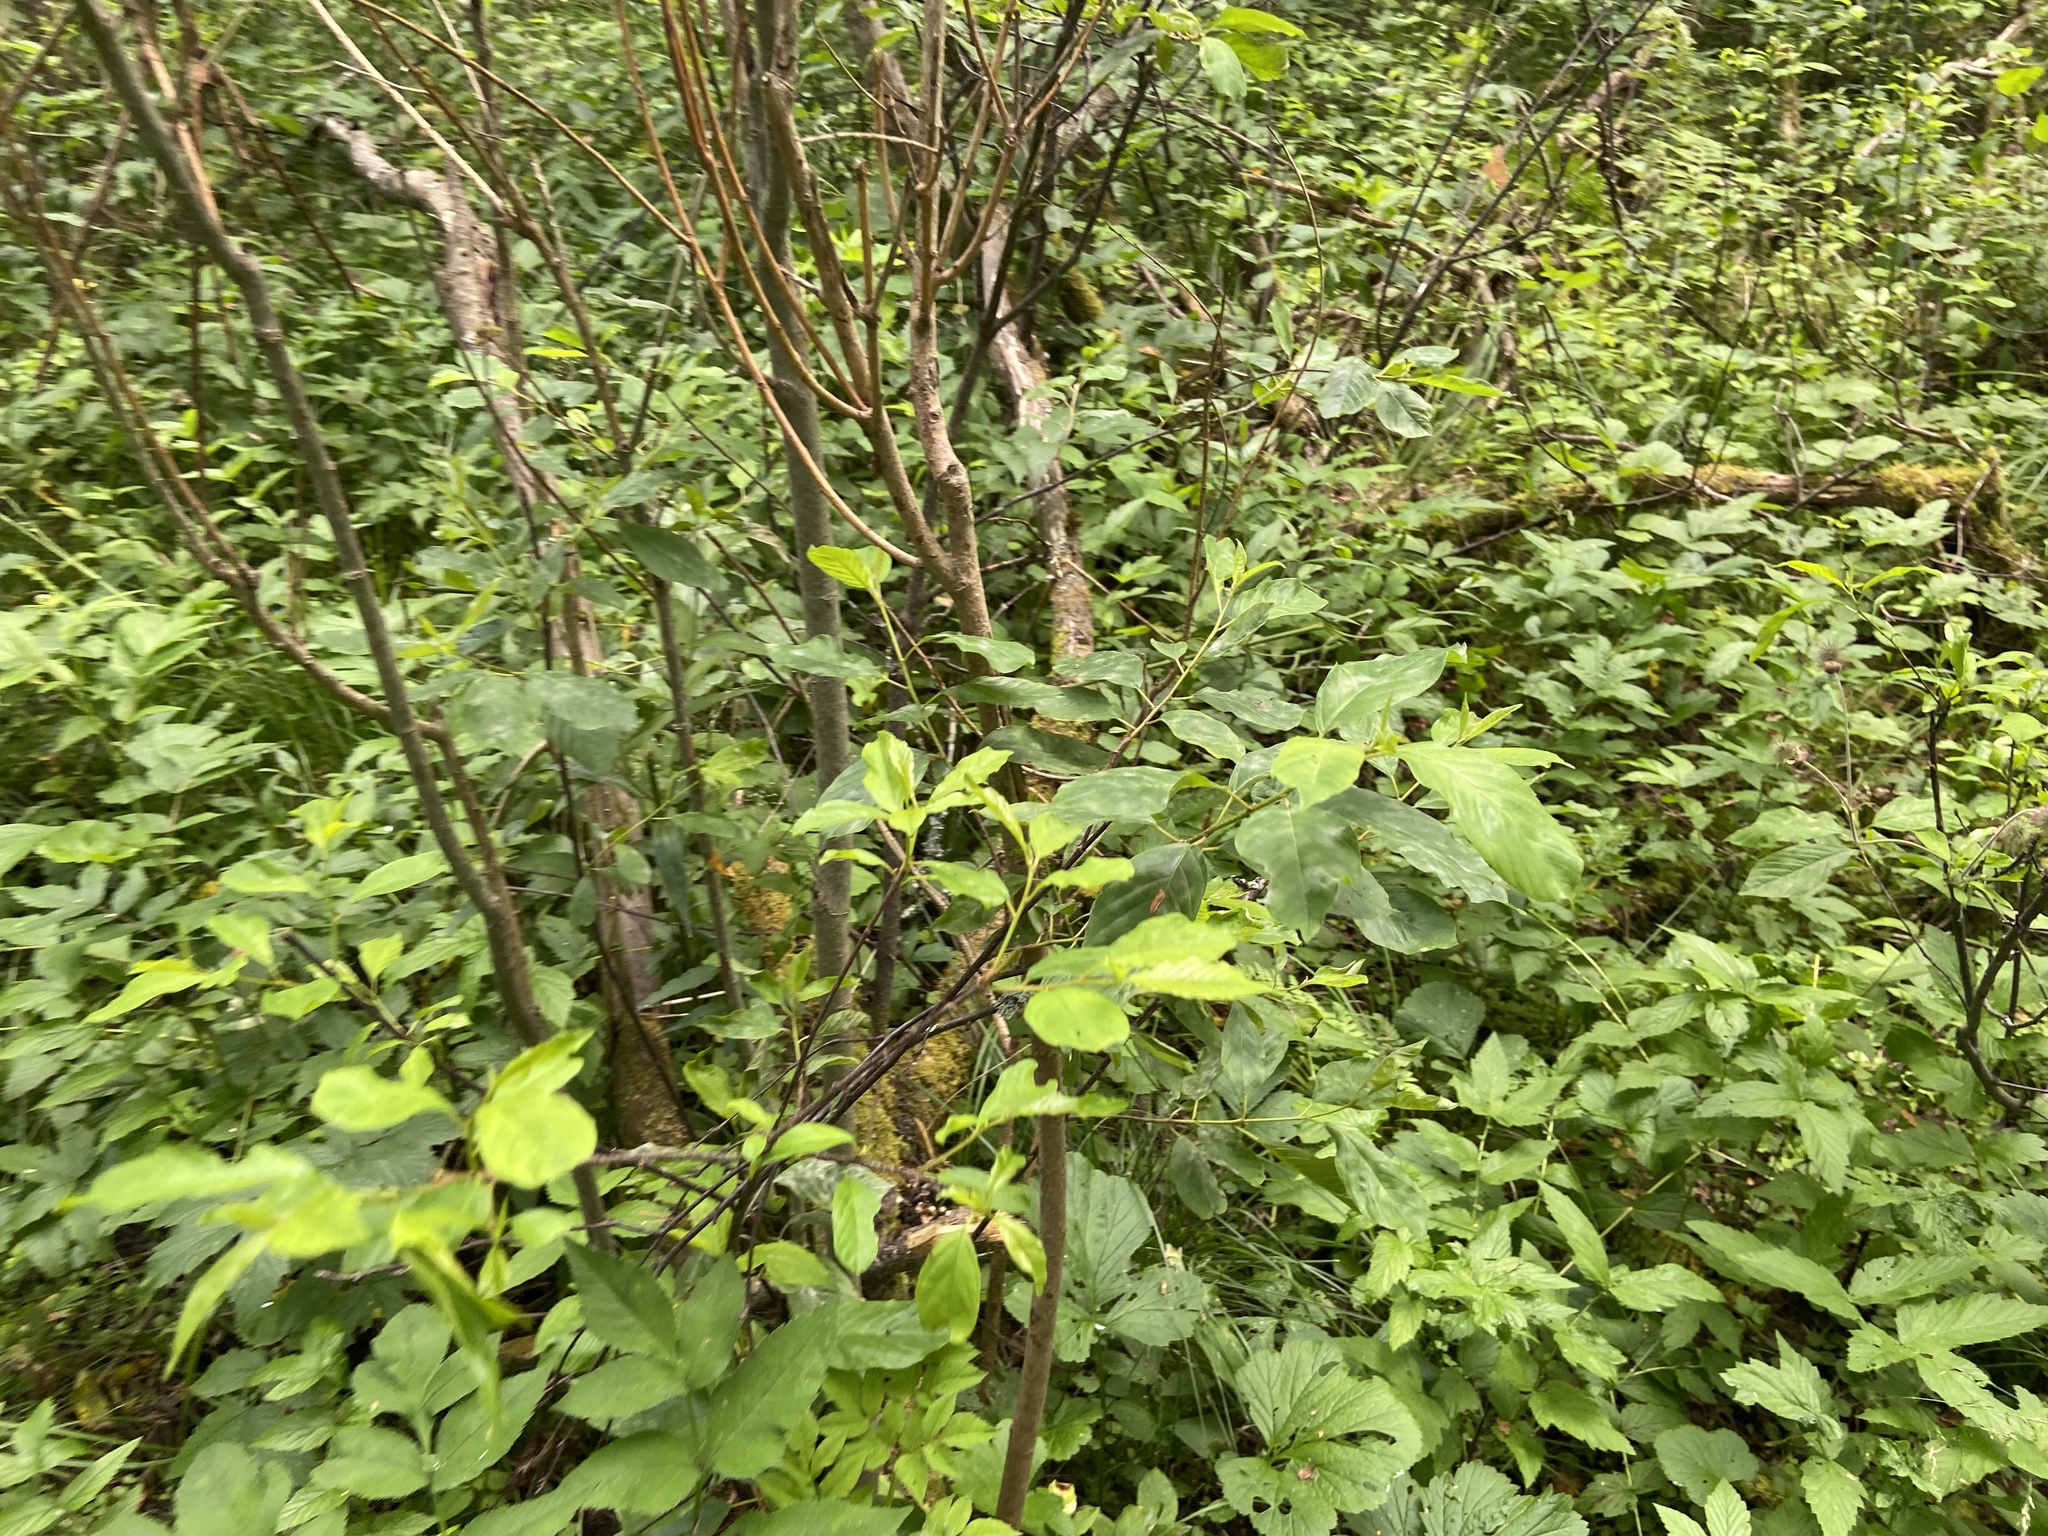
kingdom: Plantae
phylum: Tracheophyta
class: Magnoliopsida
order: Rosales
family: Rhamnaceae
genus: Frangula
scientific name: Frangula alnus
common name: Alder buckthorn
